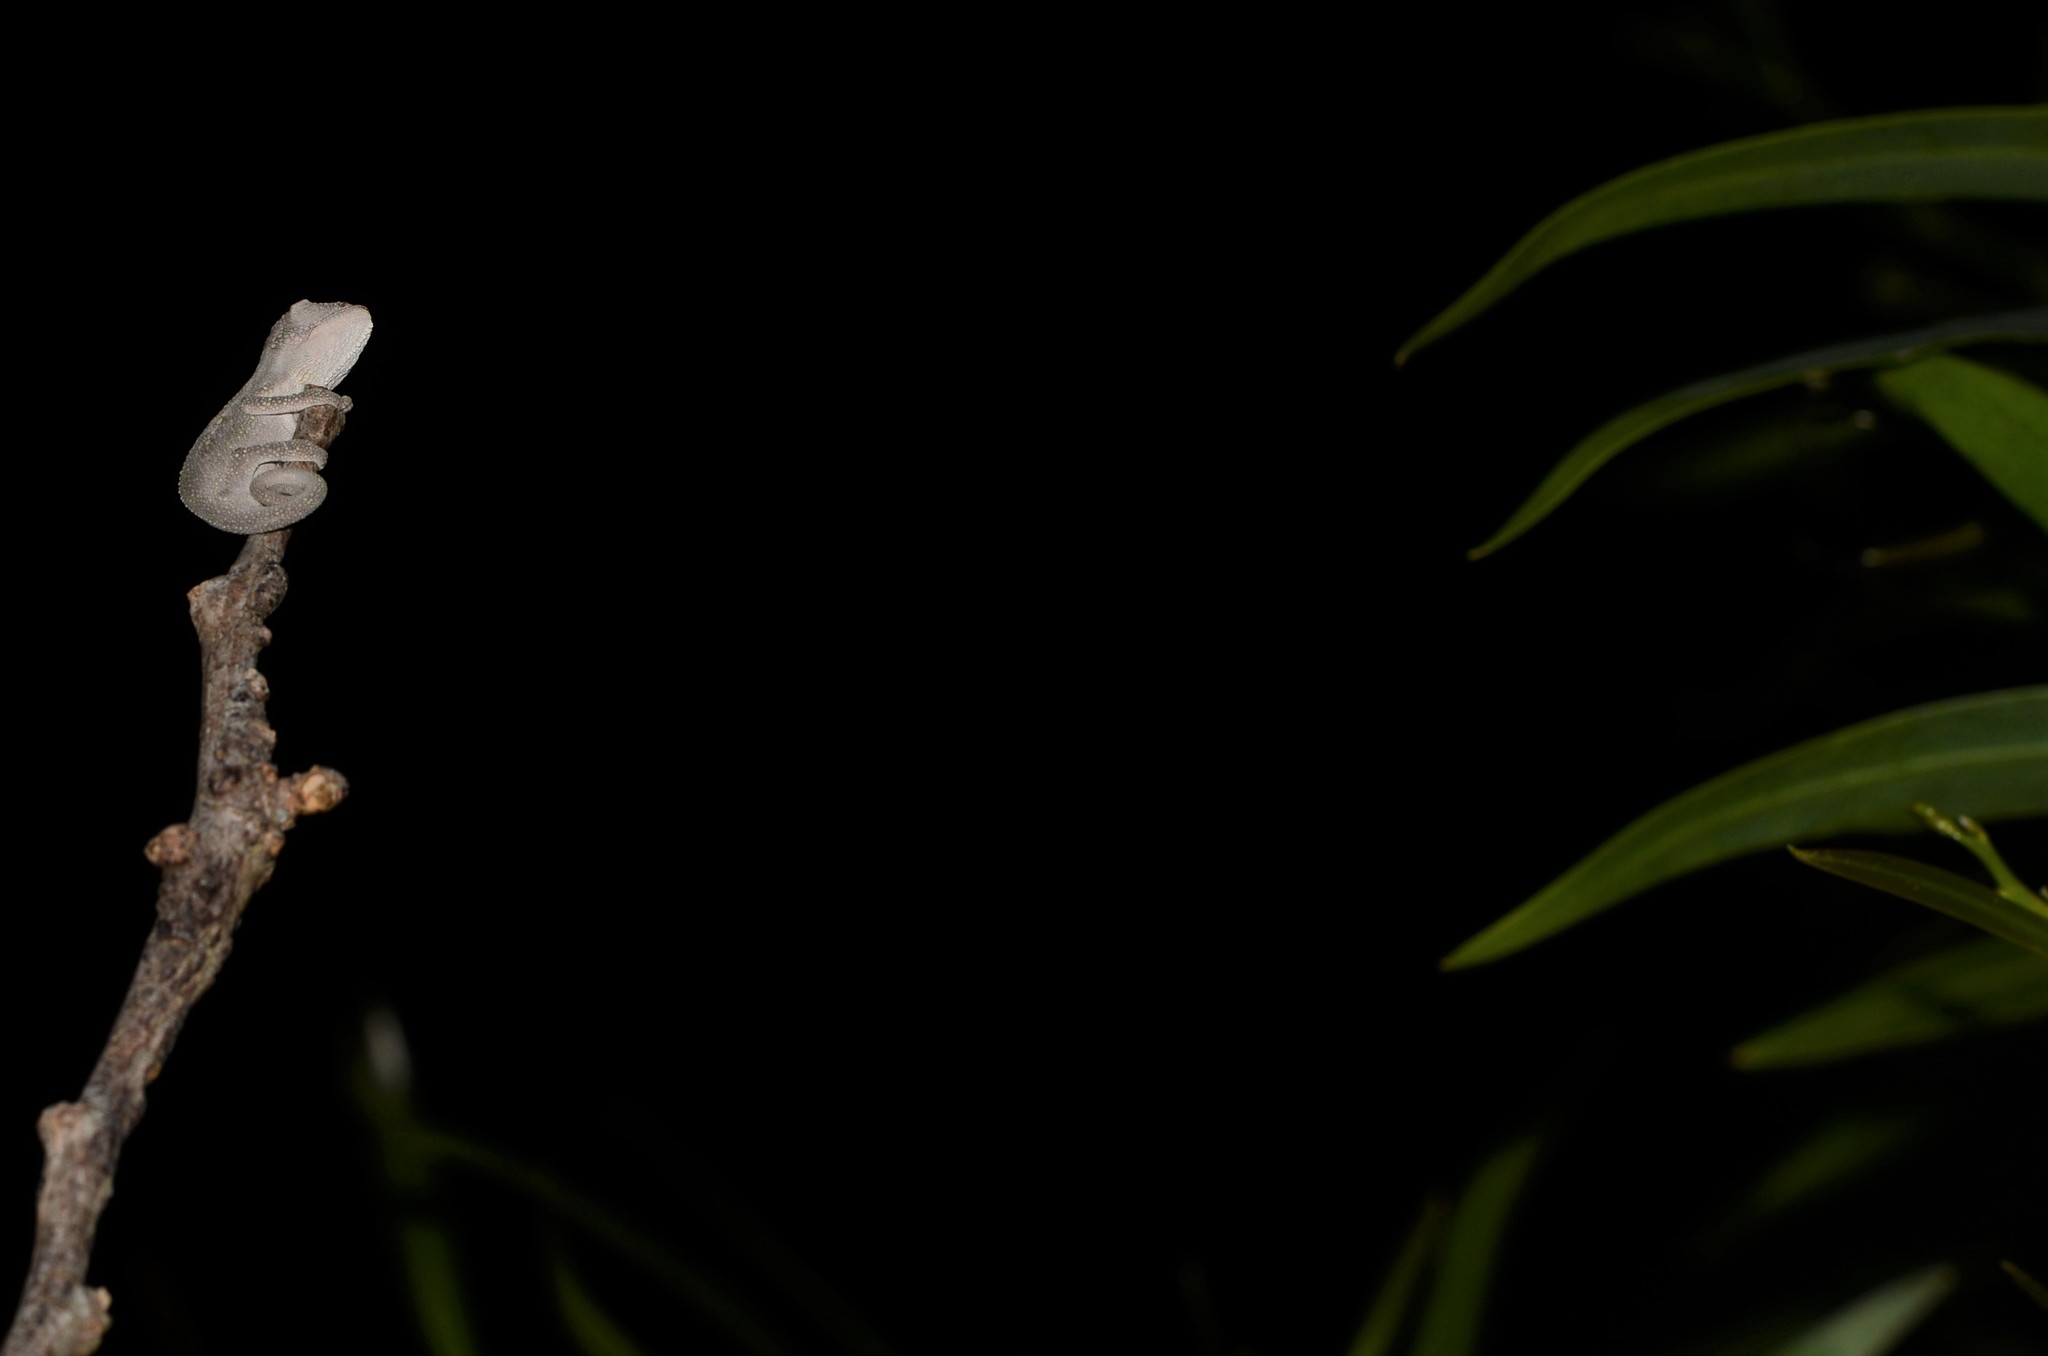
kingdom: Animalia
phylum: Chordata
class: Squamata
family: Chamaeleonidae
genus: Bradypodion
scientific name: Bradypodion pumilum
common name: Cape dwarf chameleon
